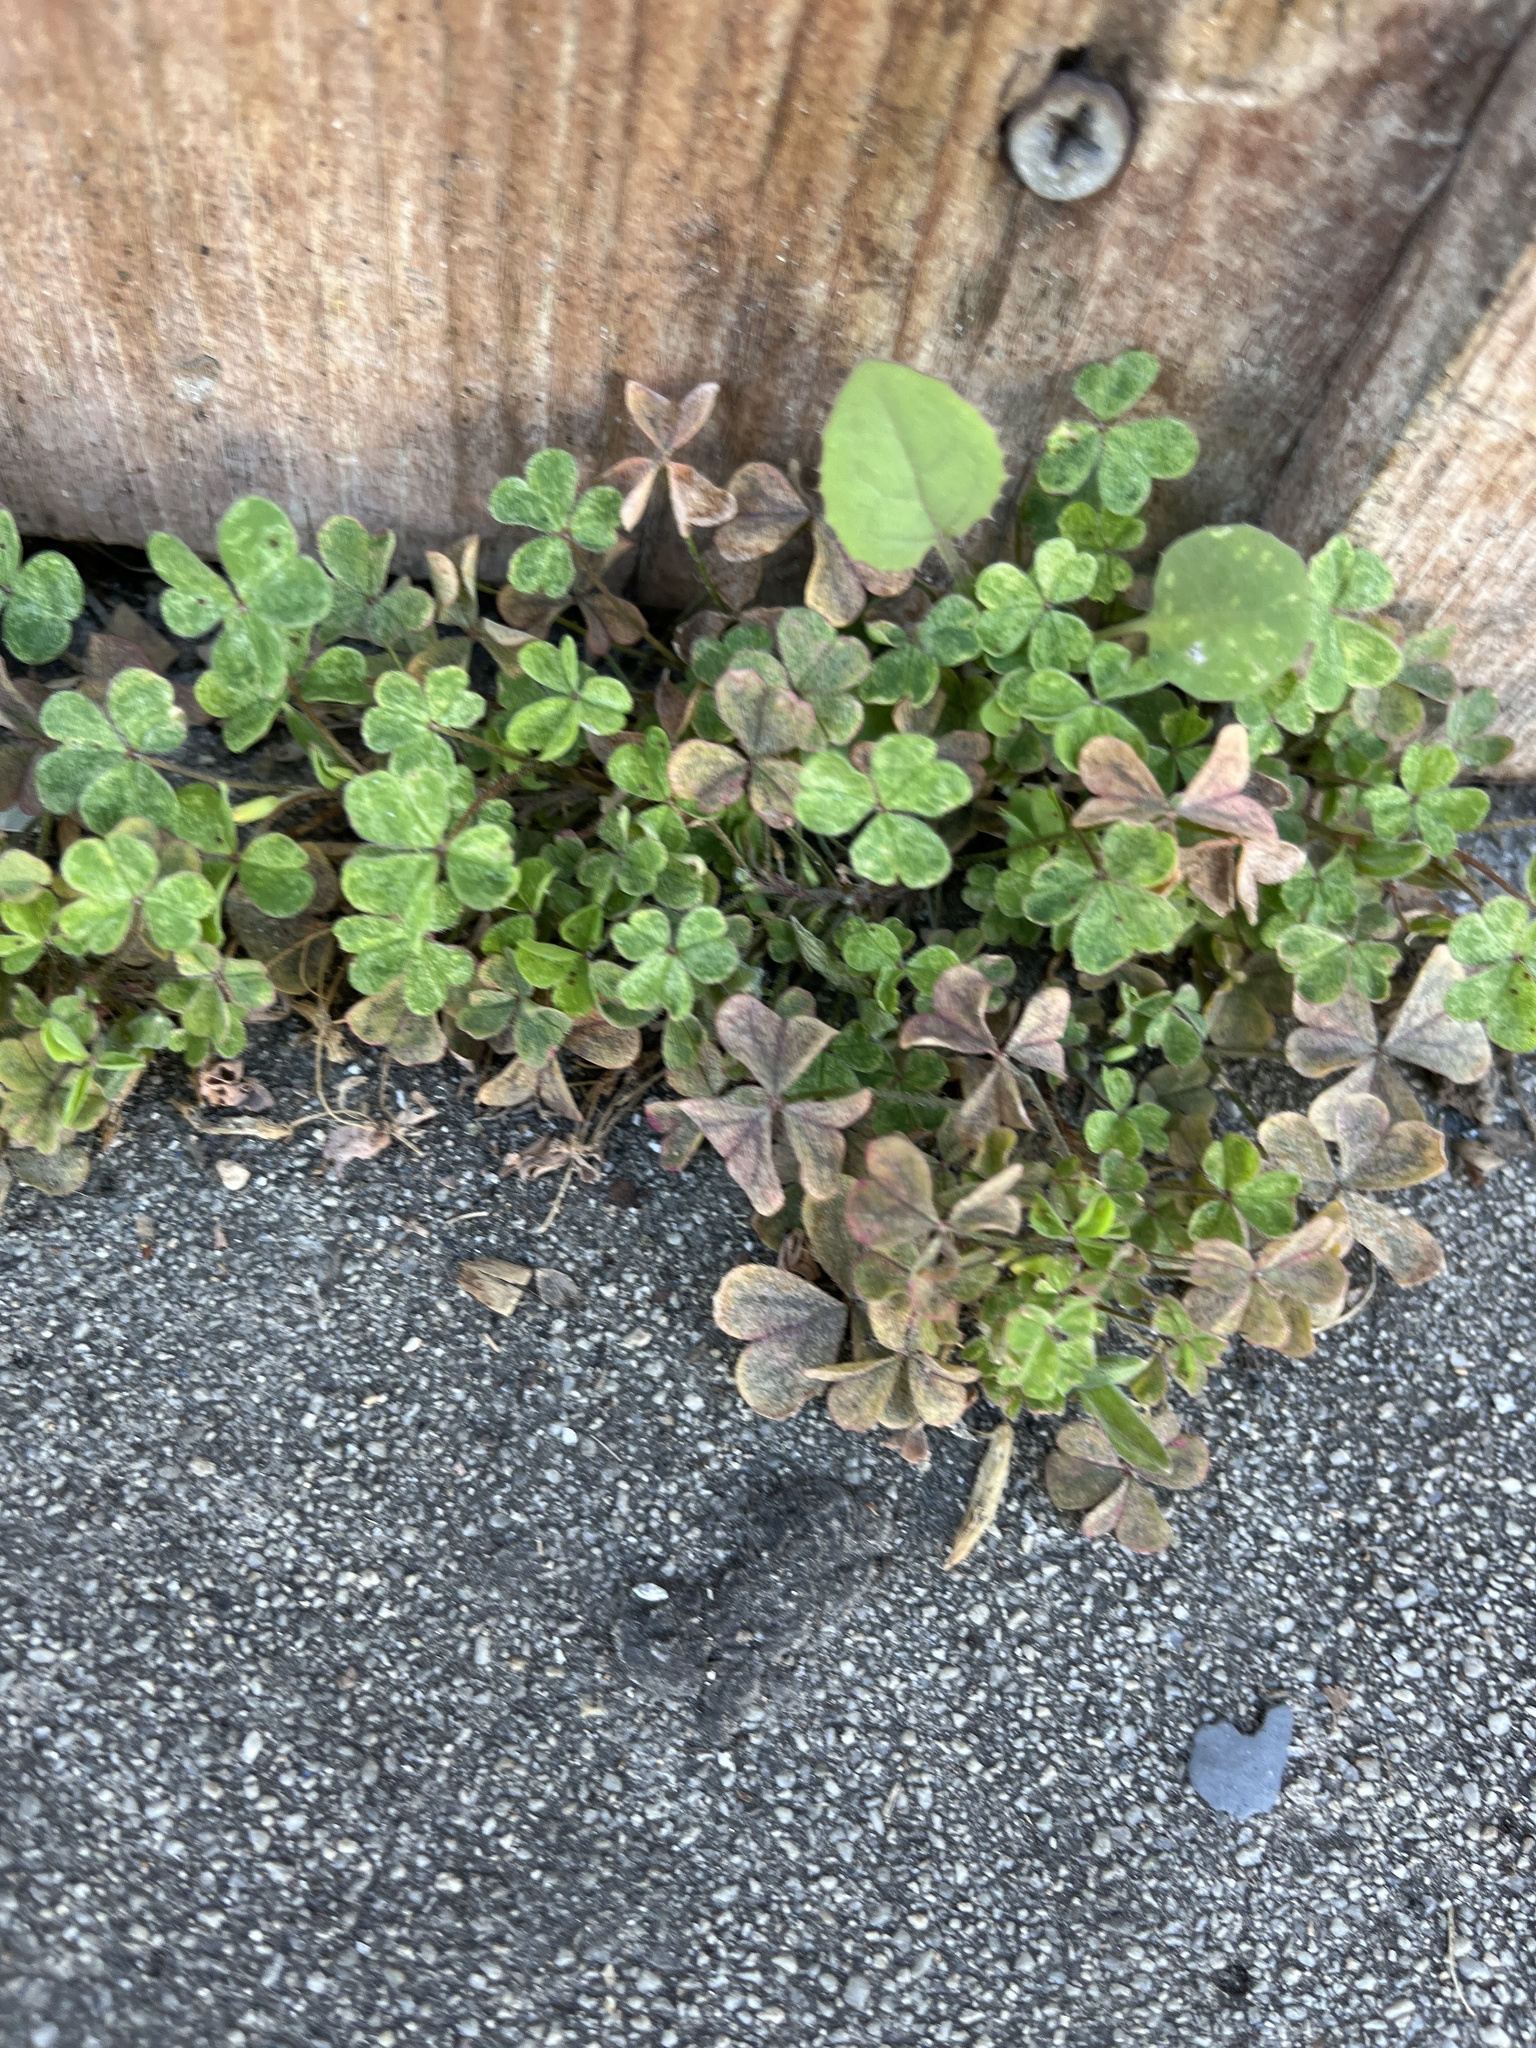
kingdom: Plantae
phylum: Tracheophyta
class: Magnoliopsida
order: Oxalidales
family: Oxalidaceae
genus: Oxalis
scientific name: Oxalis
